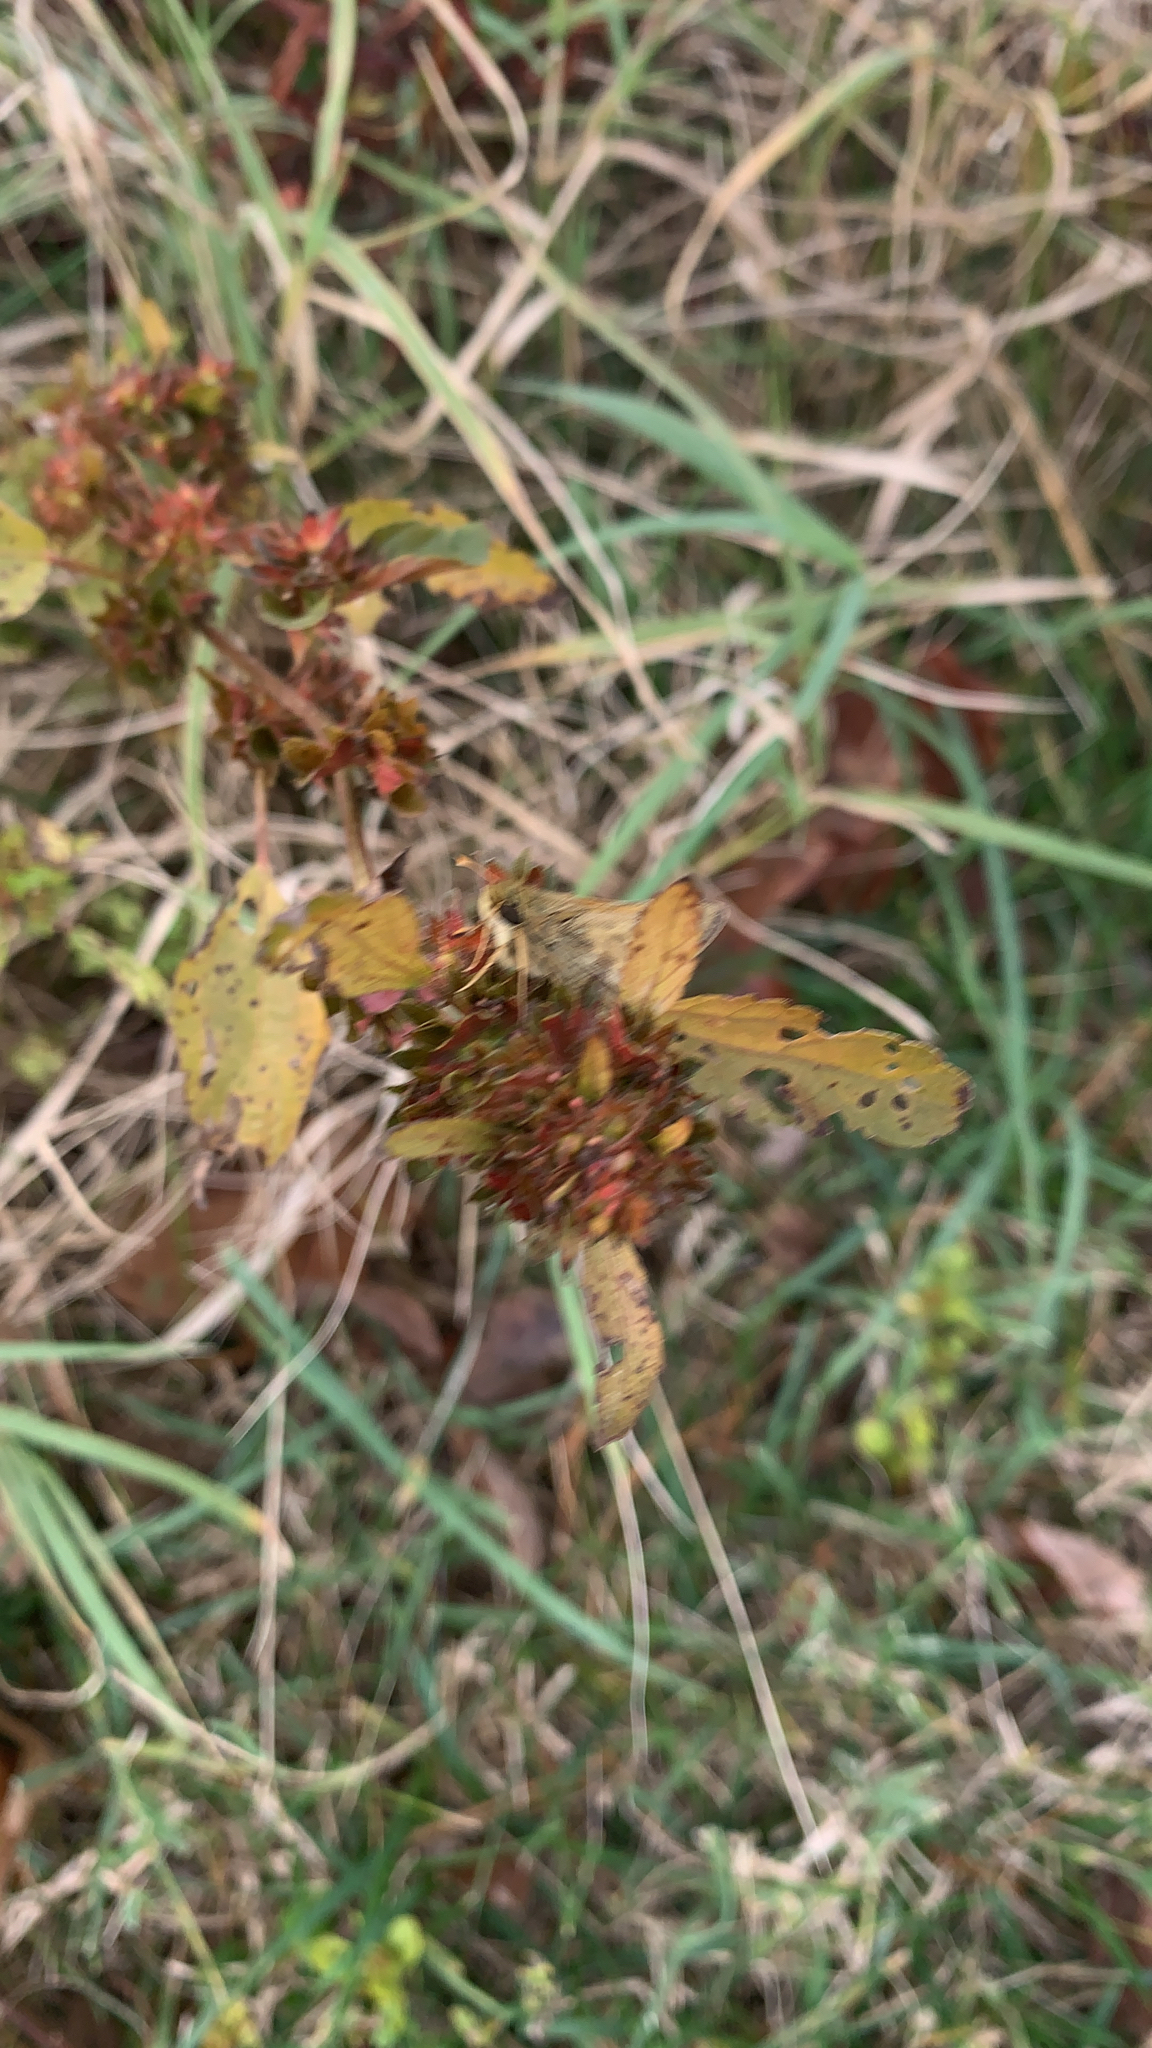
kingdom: Animalia
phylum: Arthropoda
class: Insecta
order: Lepidoptera
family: Hesperiidae
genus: Hylephila
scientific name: Hylephila phyleus
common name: Fiery skipper
